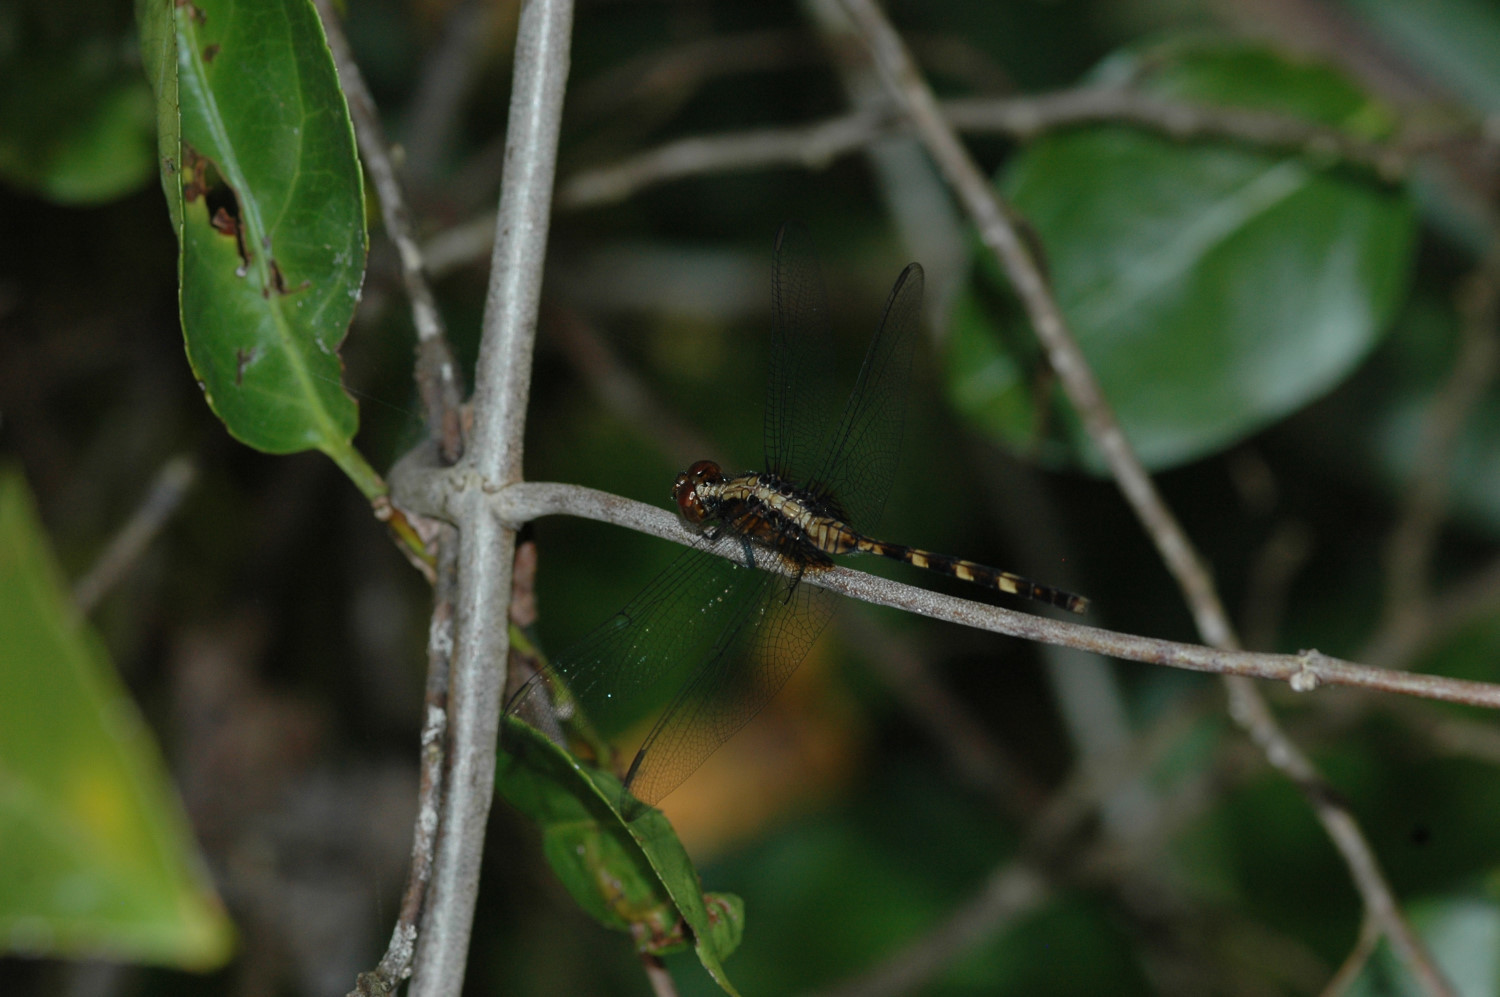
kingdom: Animalia
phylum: Arthropoda
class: Insecta
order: Odonata
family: Libellulidae
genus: Erythemis
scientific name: Erythemis plebeja
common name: Pin-tailed pondhawk
